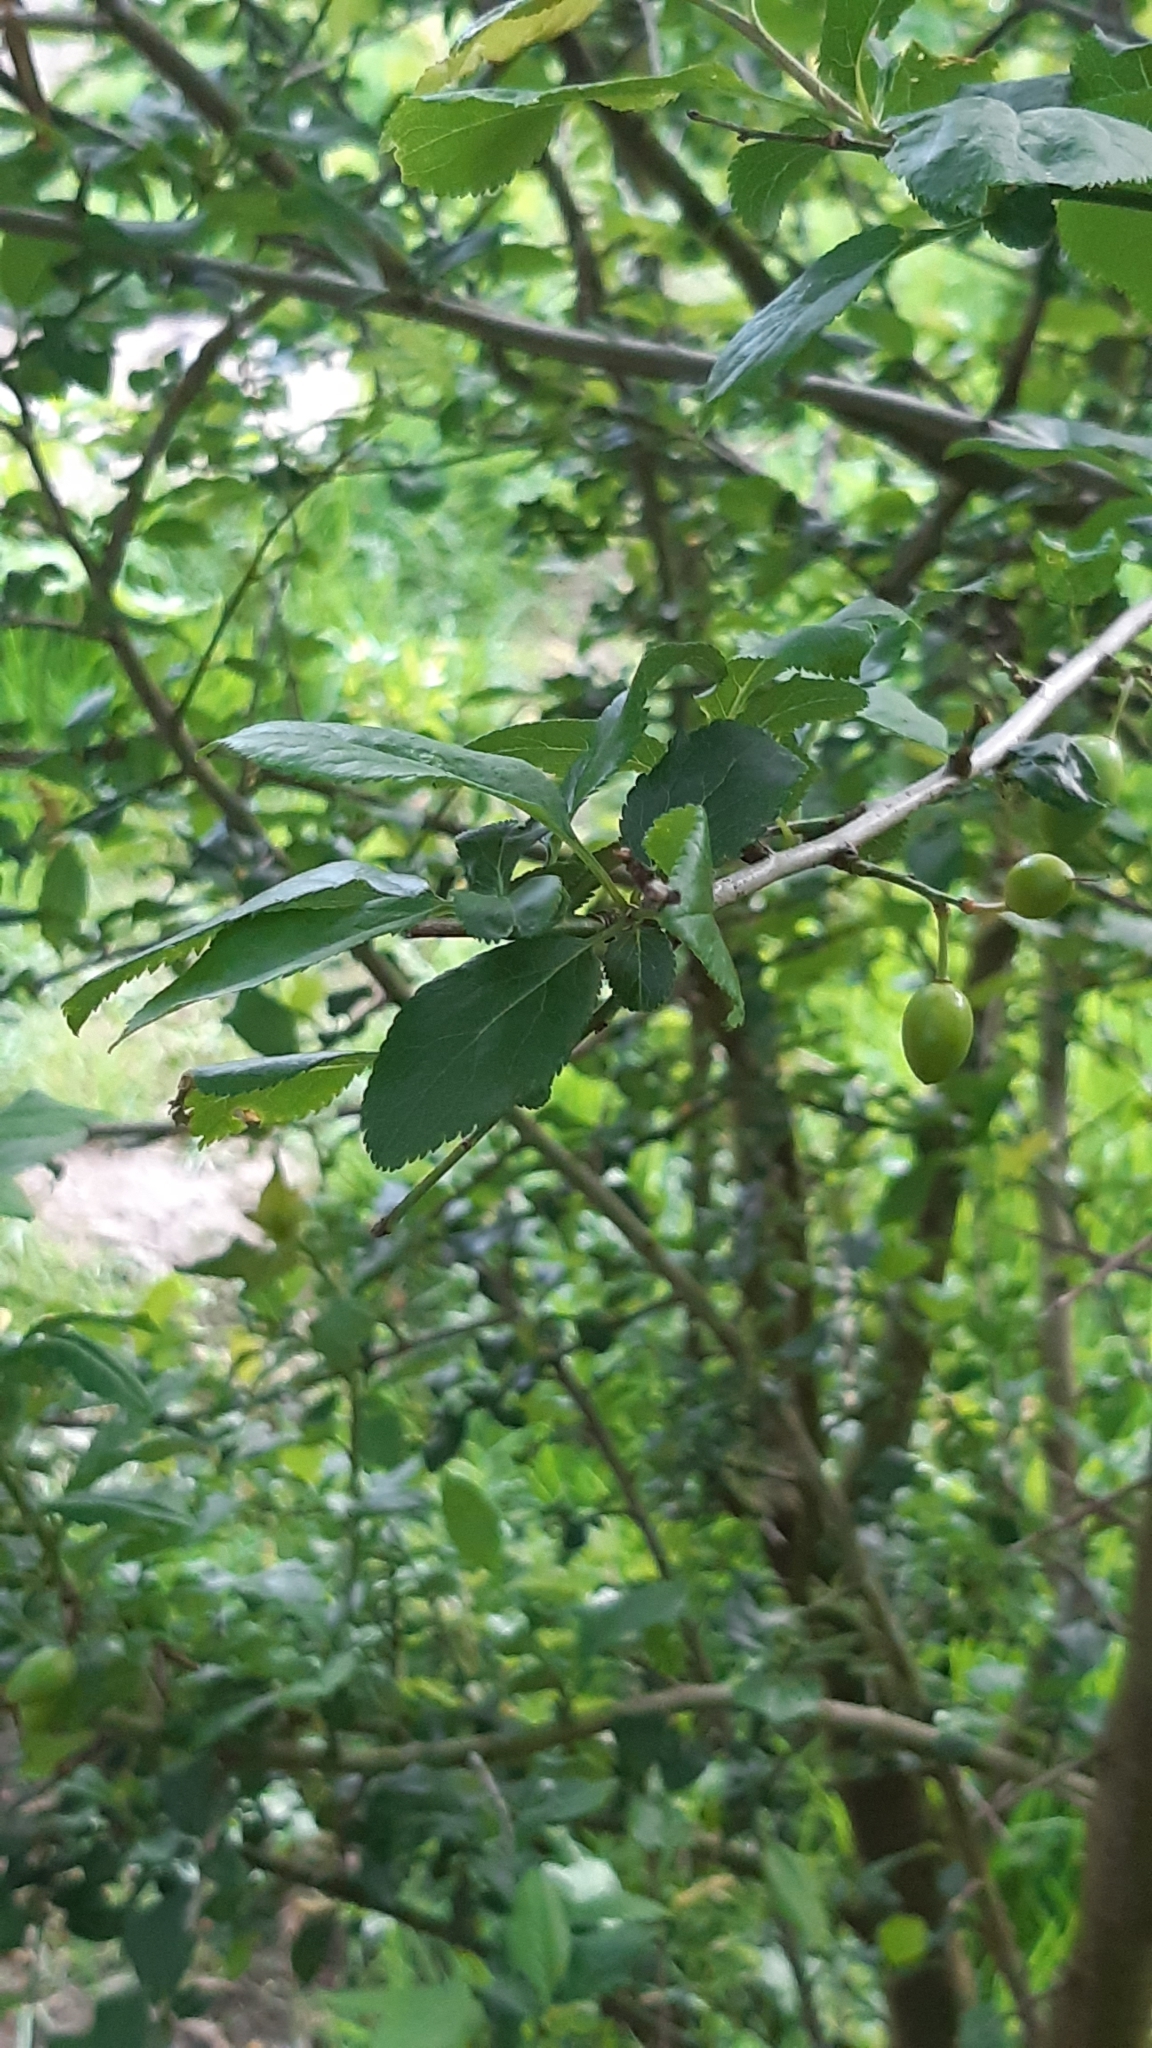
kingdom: Plantae
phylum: Tracheophyta
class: Magnoliopsida
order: Rosales
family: Rosaceae
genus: Prunus
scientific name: Prunus spinosa
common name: Blackthorn
